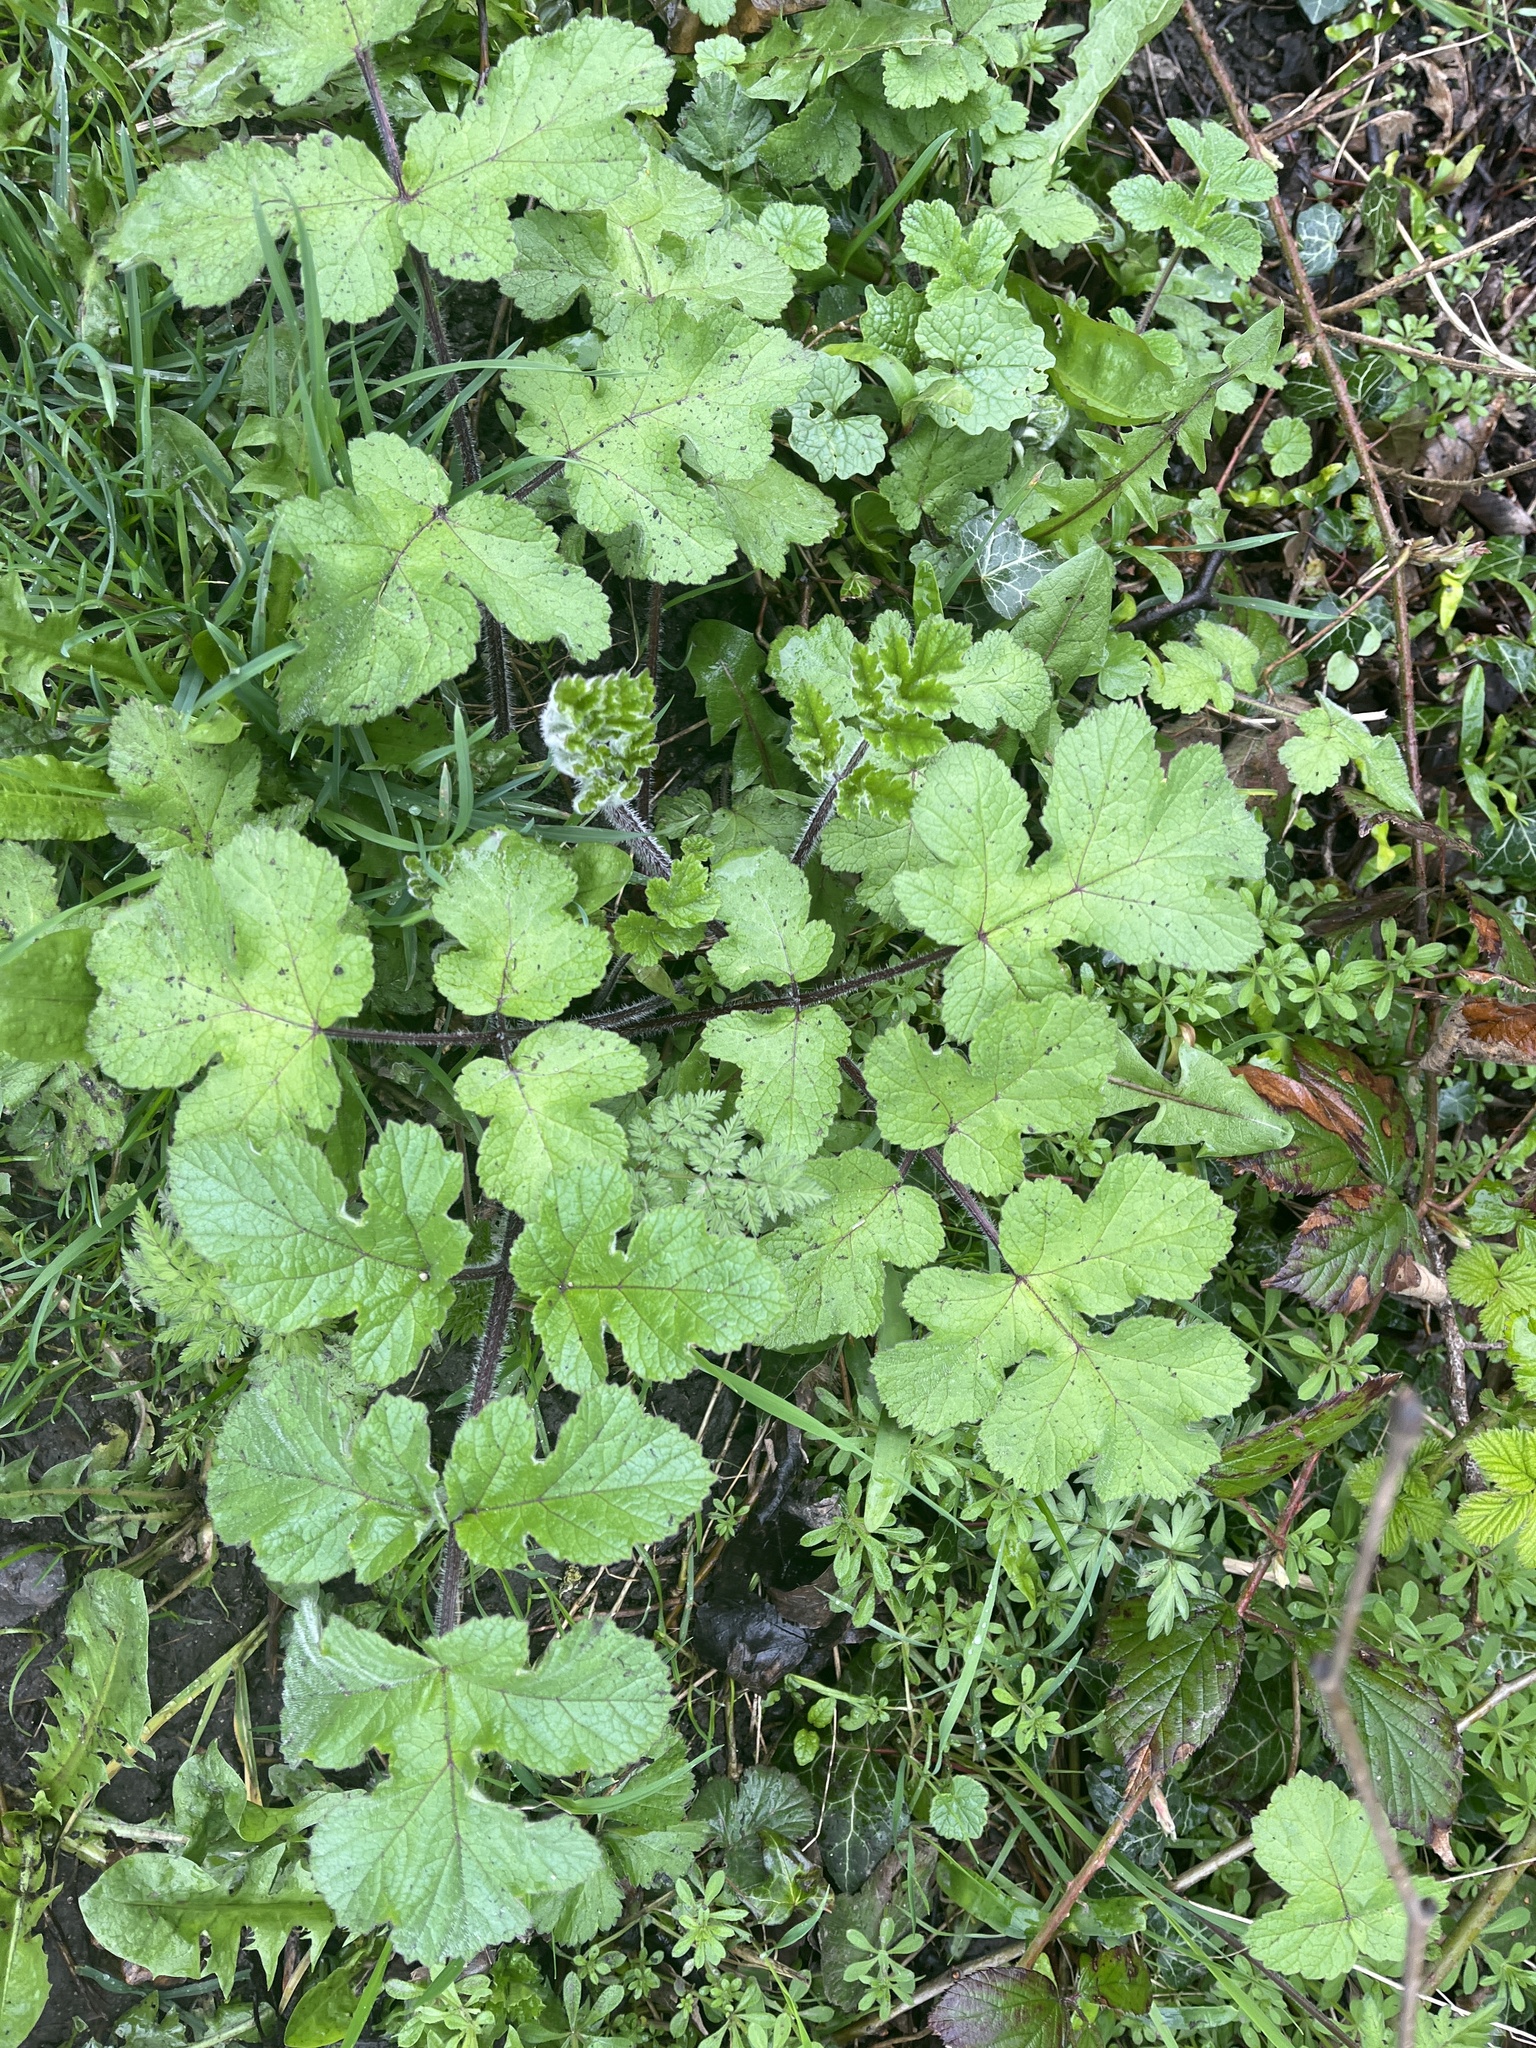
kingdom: Plantae
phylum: Tracheophyta
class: Magnoliopsida
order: Apiales
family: Apiaceae
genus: Heracleum
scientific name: Heracleum sphondylium
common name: Hogweed
